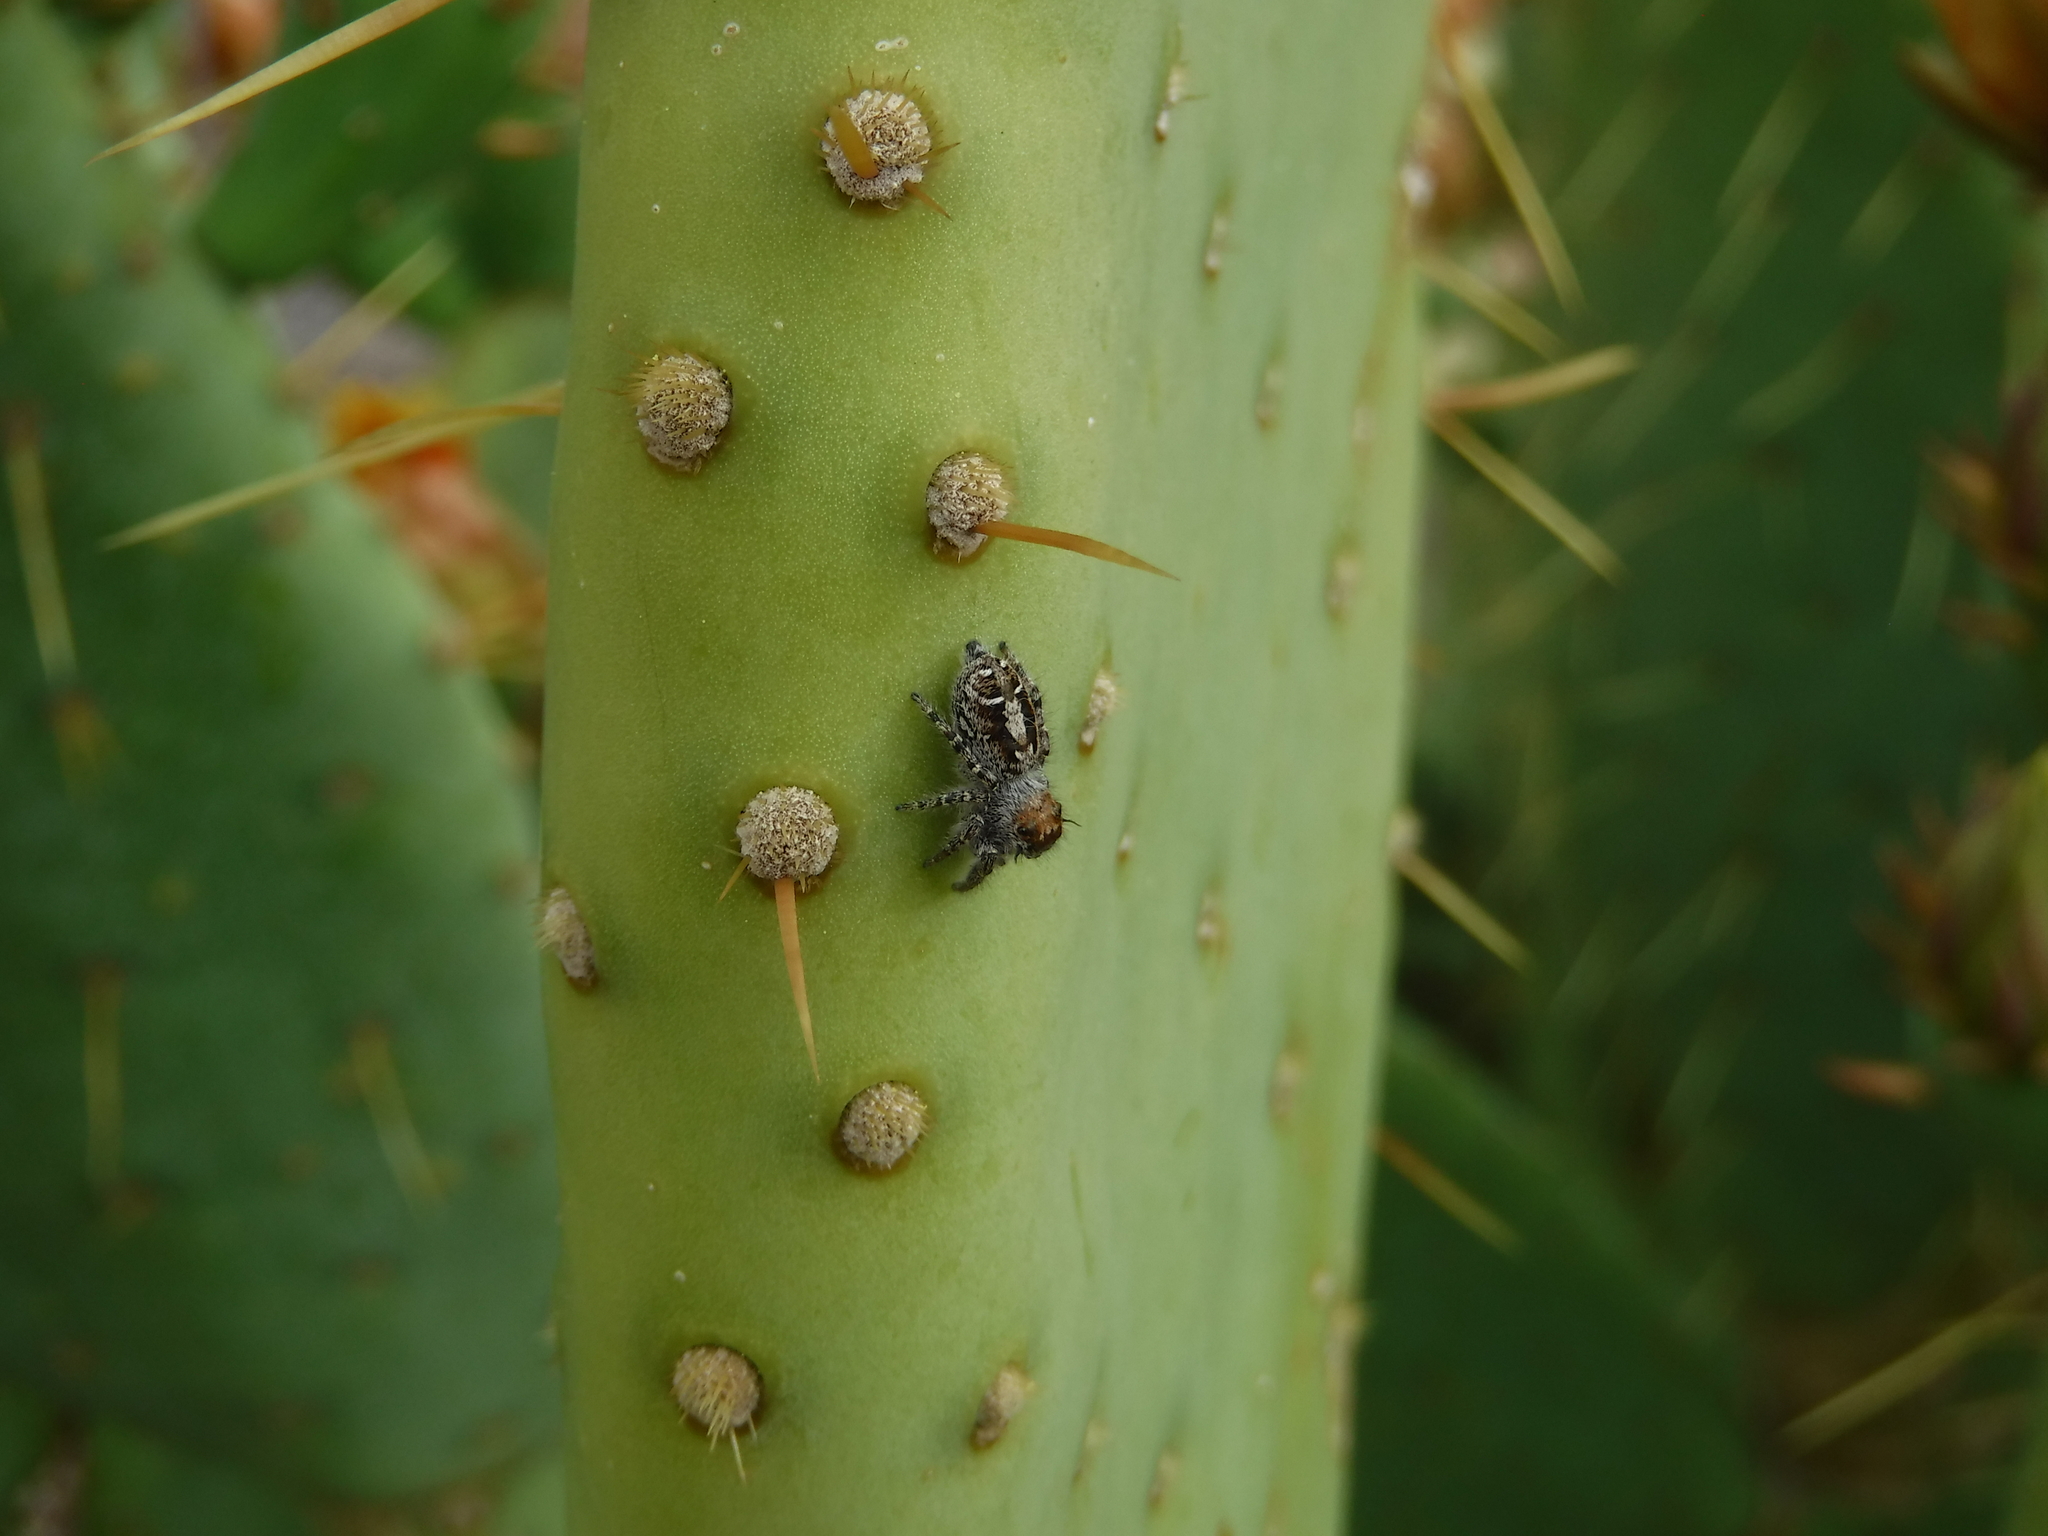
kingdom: Animalia
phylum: Arthropoda
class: Arachnida
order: Araneae
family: Salticidae
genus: Phidippus
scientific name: Phidippus comatus
